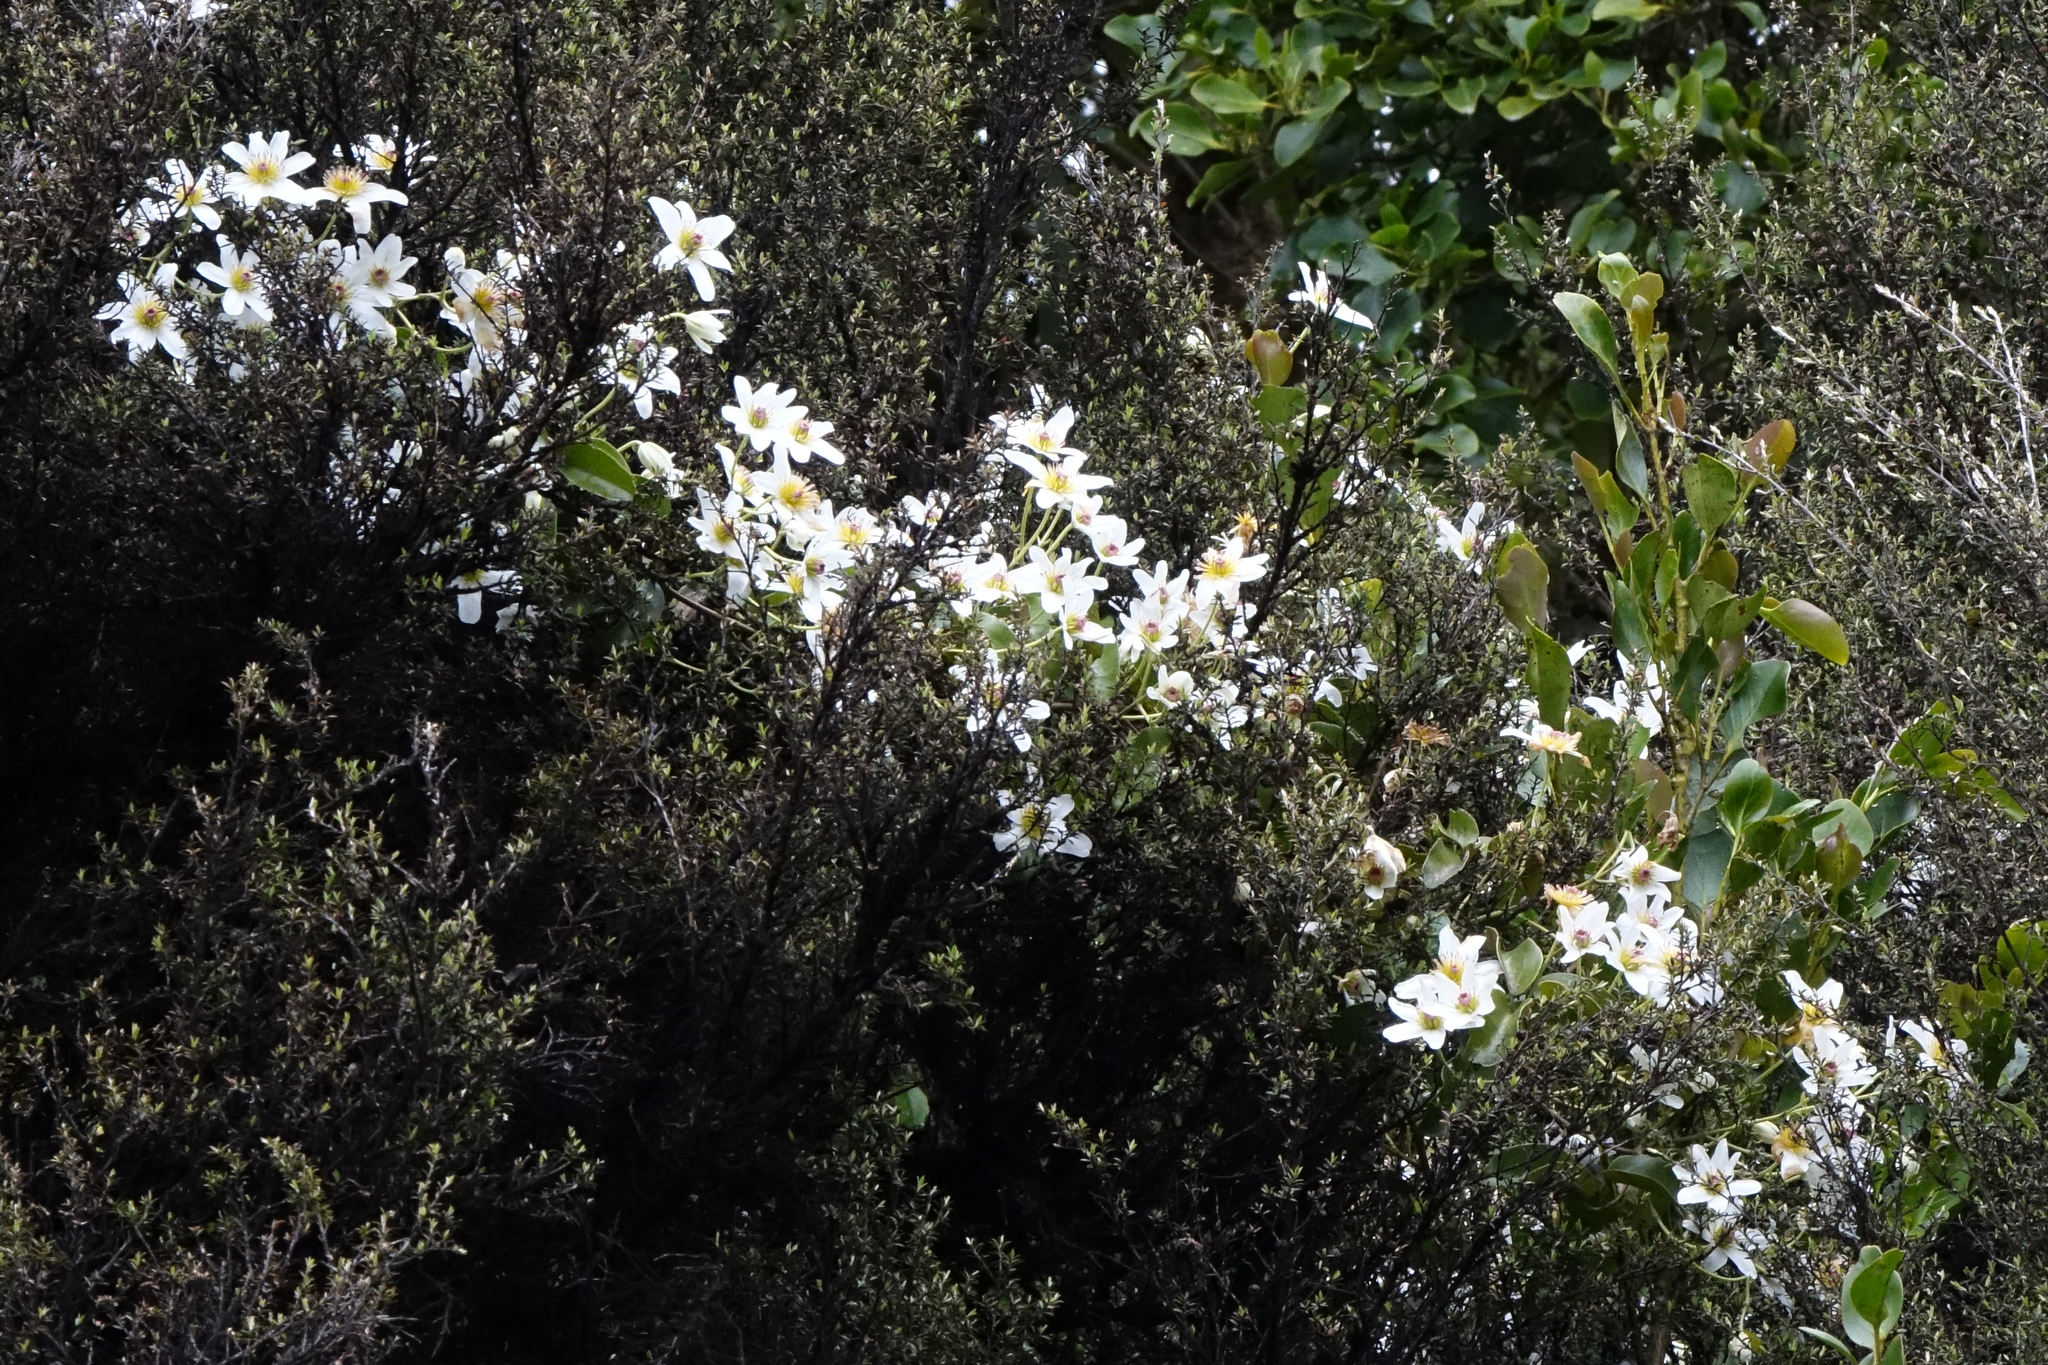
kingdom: Plantae
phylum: Tracheophyta
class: Magnoliopsida
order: Ranunculales
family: Ranunculaceae
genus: Clematis
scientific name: Clematis paniculata
